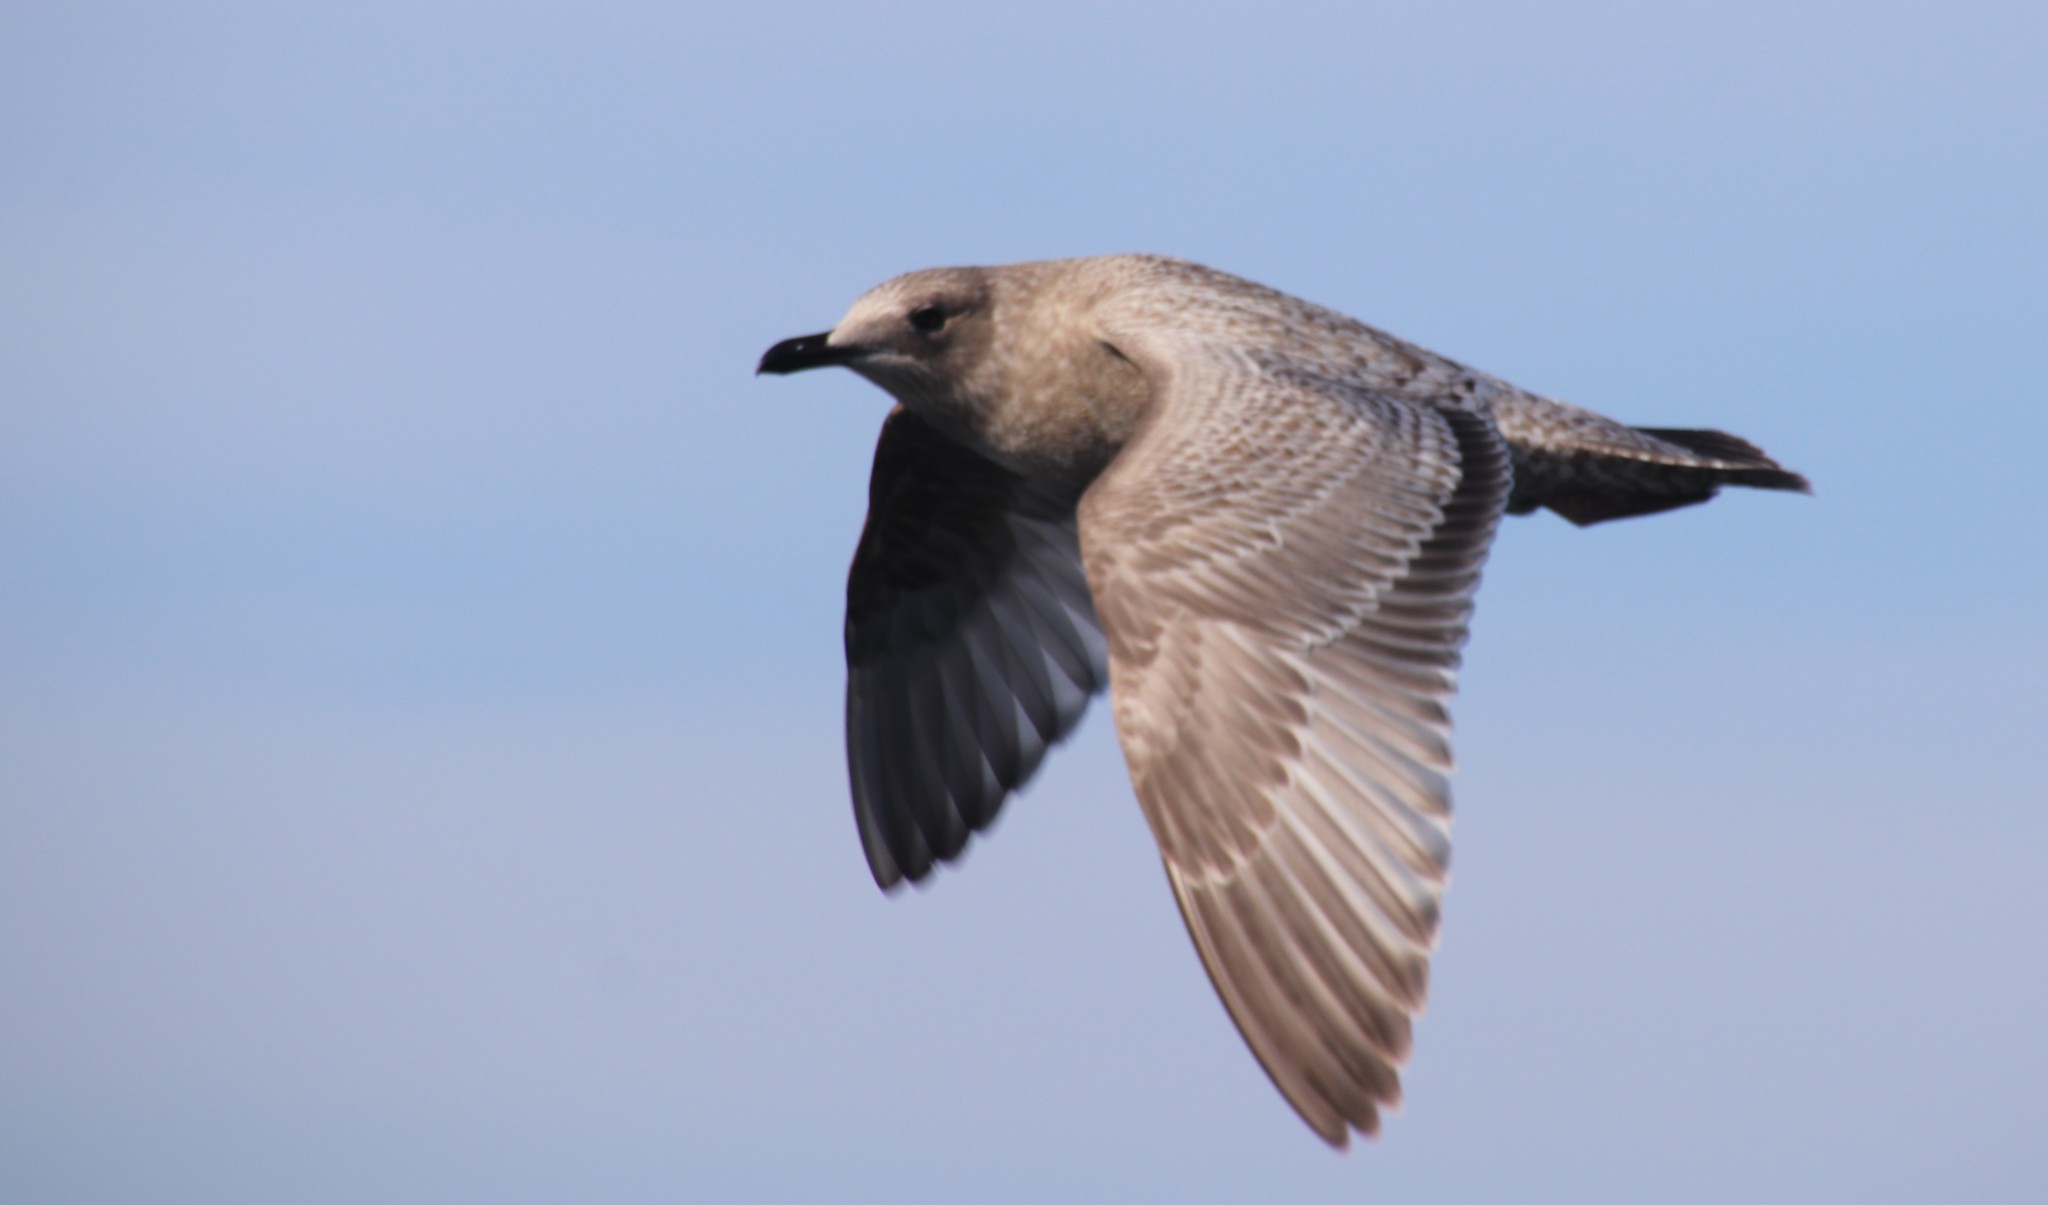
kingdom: Animalia
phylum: Chordata
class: Aves
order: Charadriiformes
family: Laridae
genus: Larus
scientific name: Larus glaucoides
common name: Iceland gull
